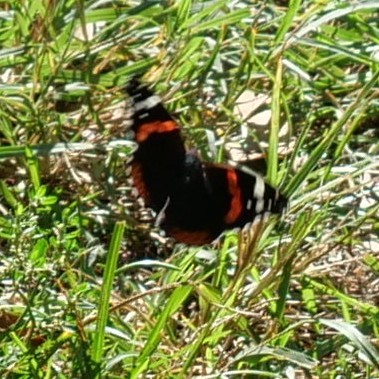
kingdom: Animalia
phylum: Arthropoda
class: Insecta
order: Lepidoptera
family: Nymphalidae
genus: Vanessa
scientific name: Vanessa atalanta
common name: Red admiral
